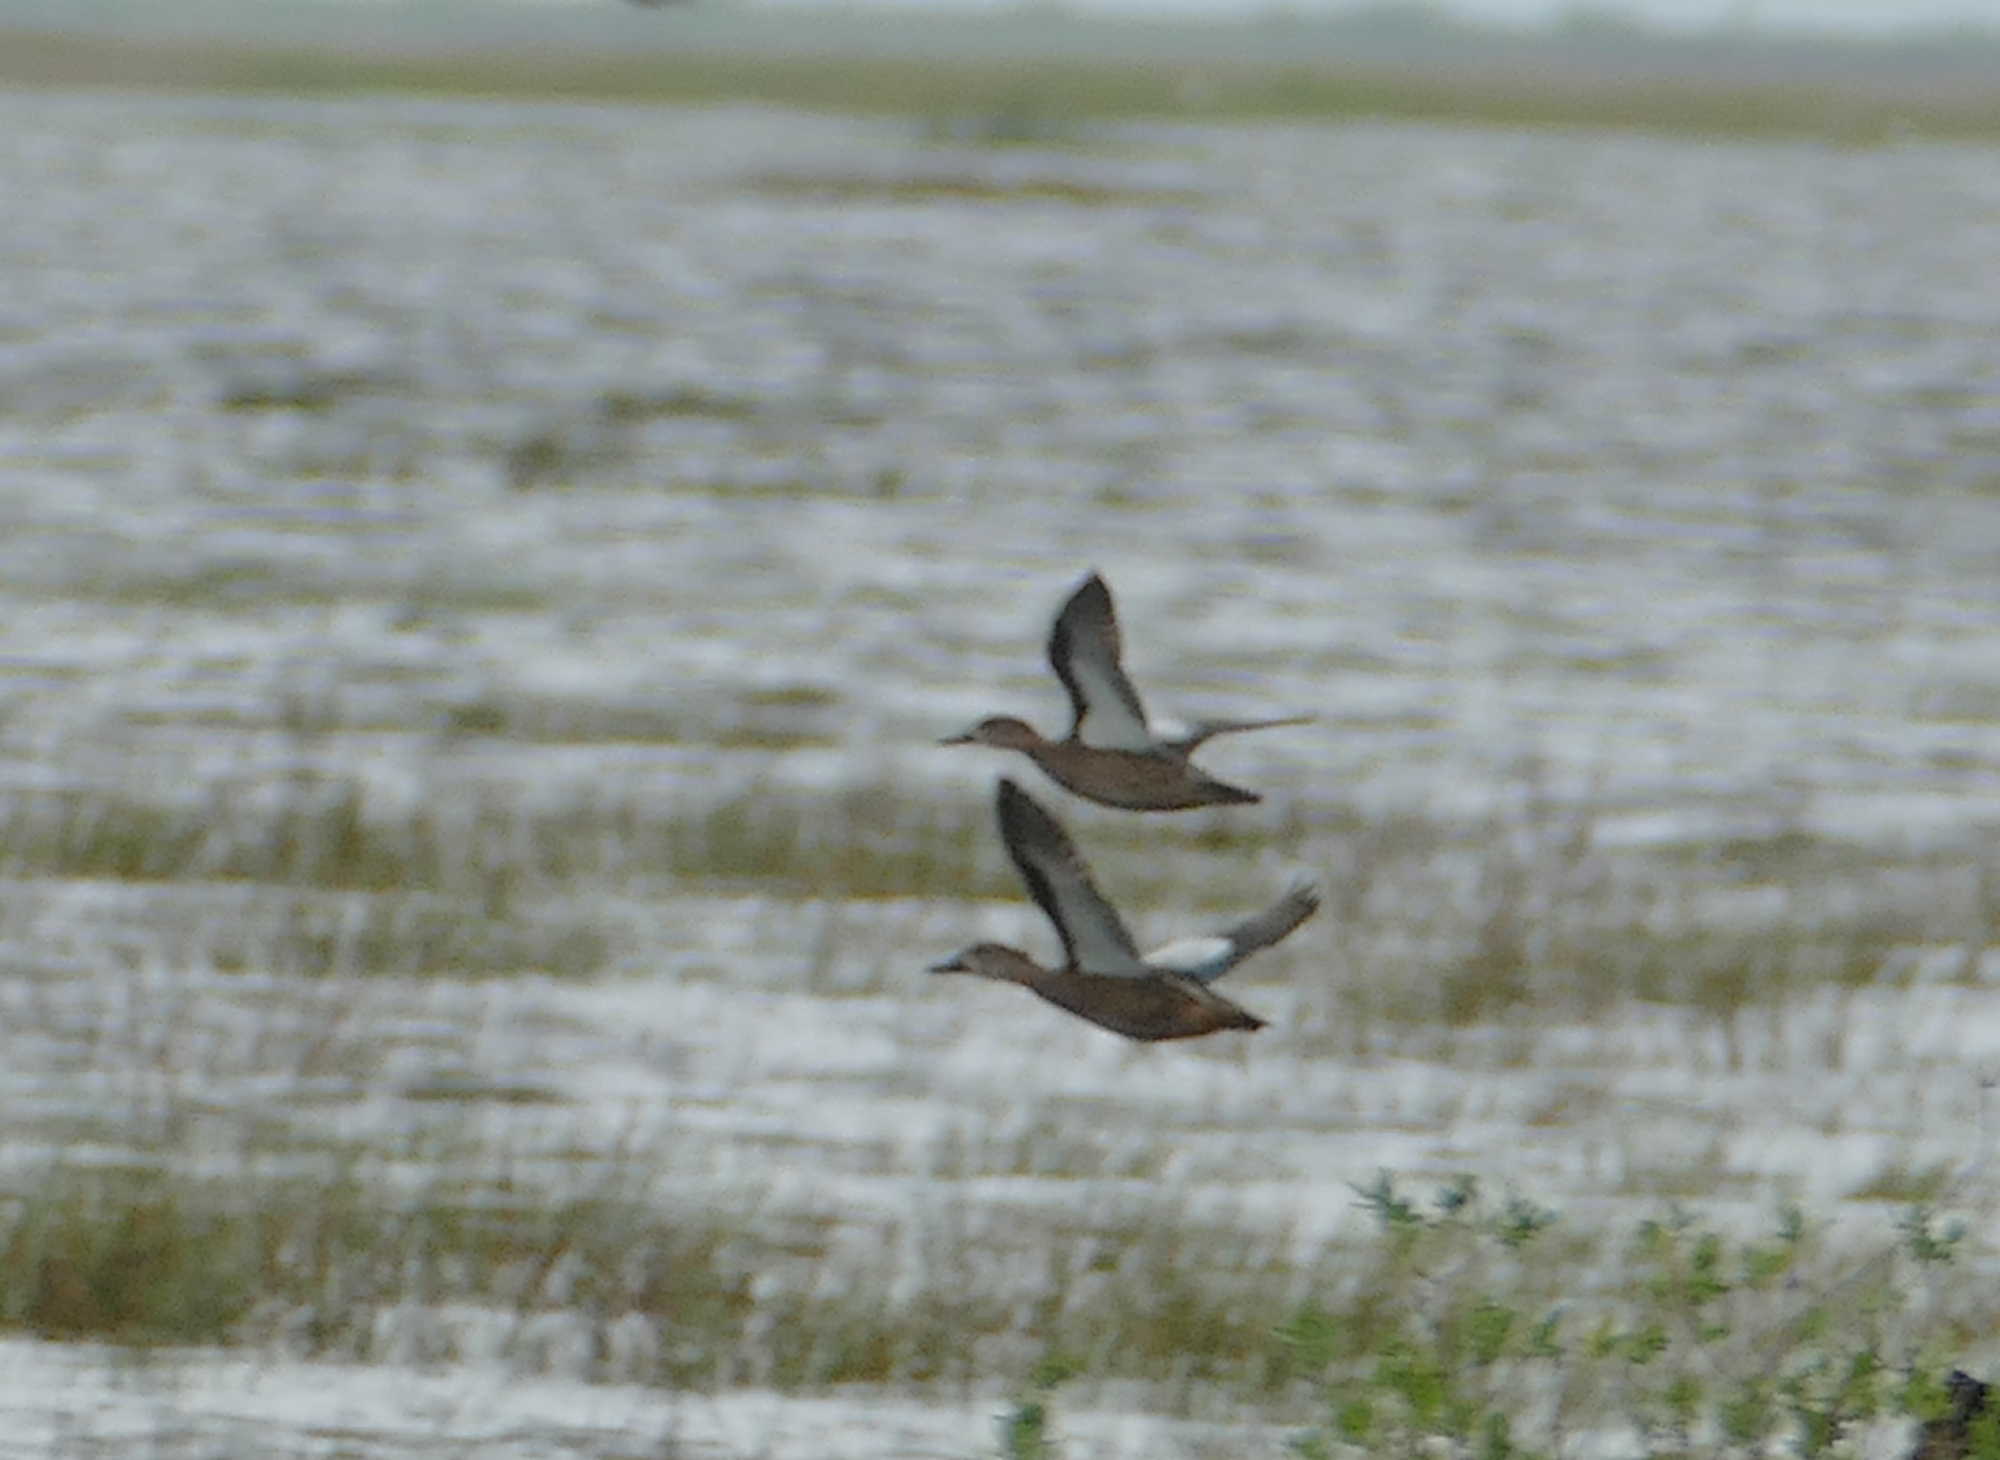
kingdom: Animalia
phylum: Chordata
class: Aves
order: Anseriformes
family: Anatidae
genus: Spatula
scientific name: Spatula discors
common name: Blue-winged teal
